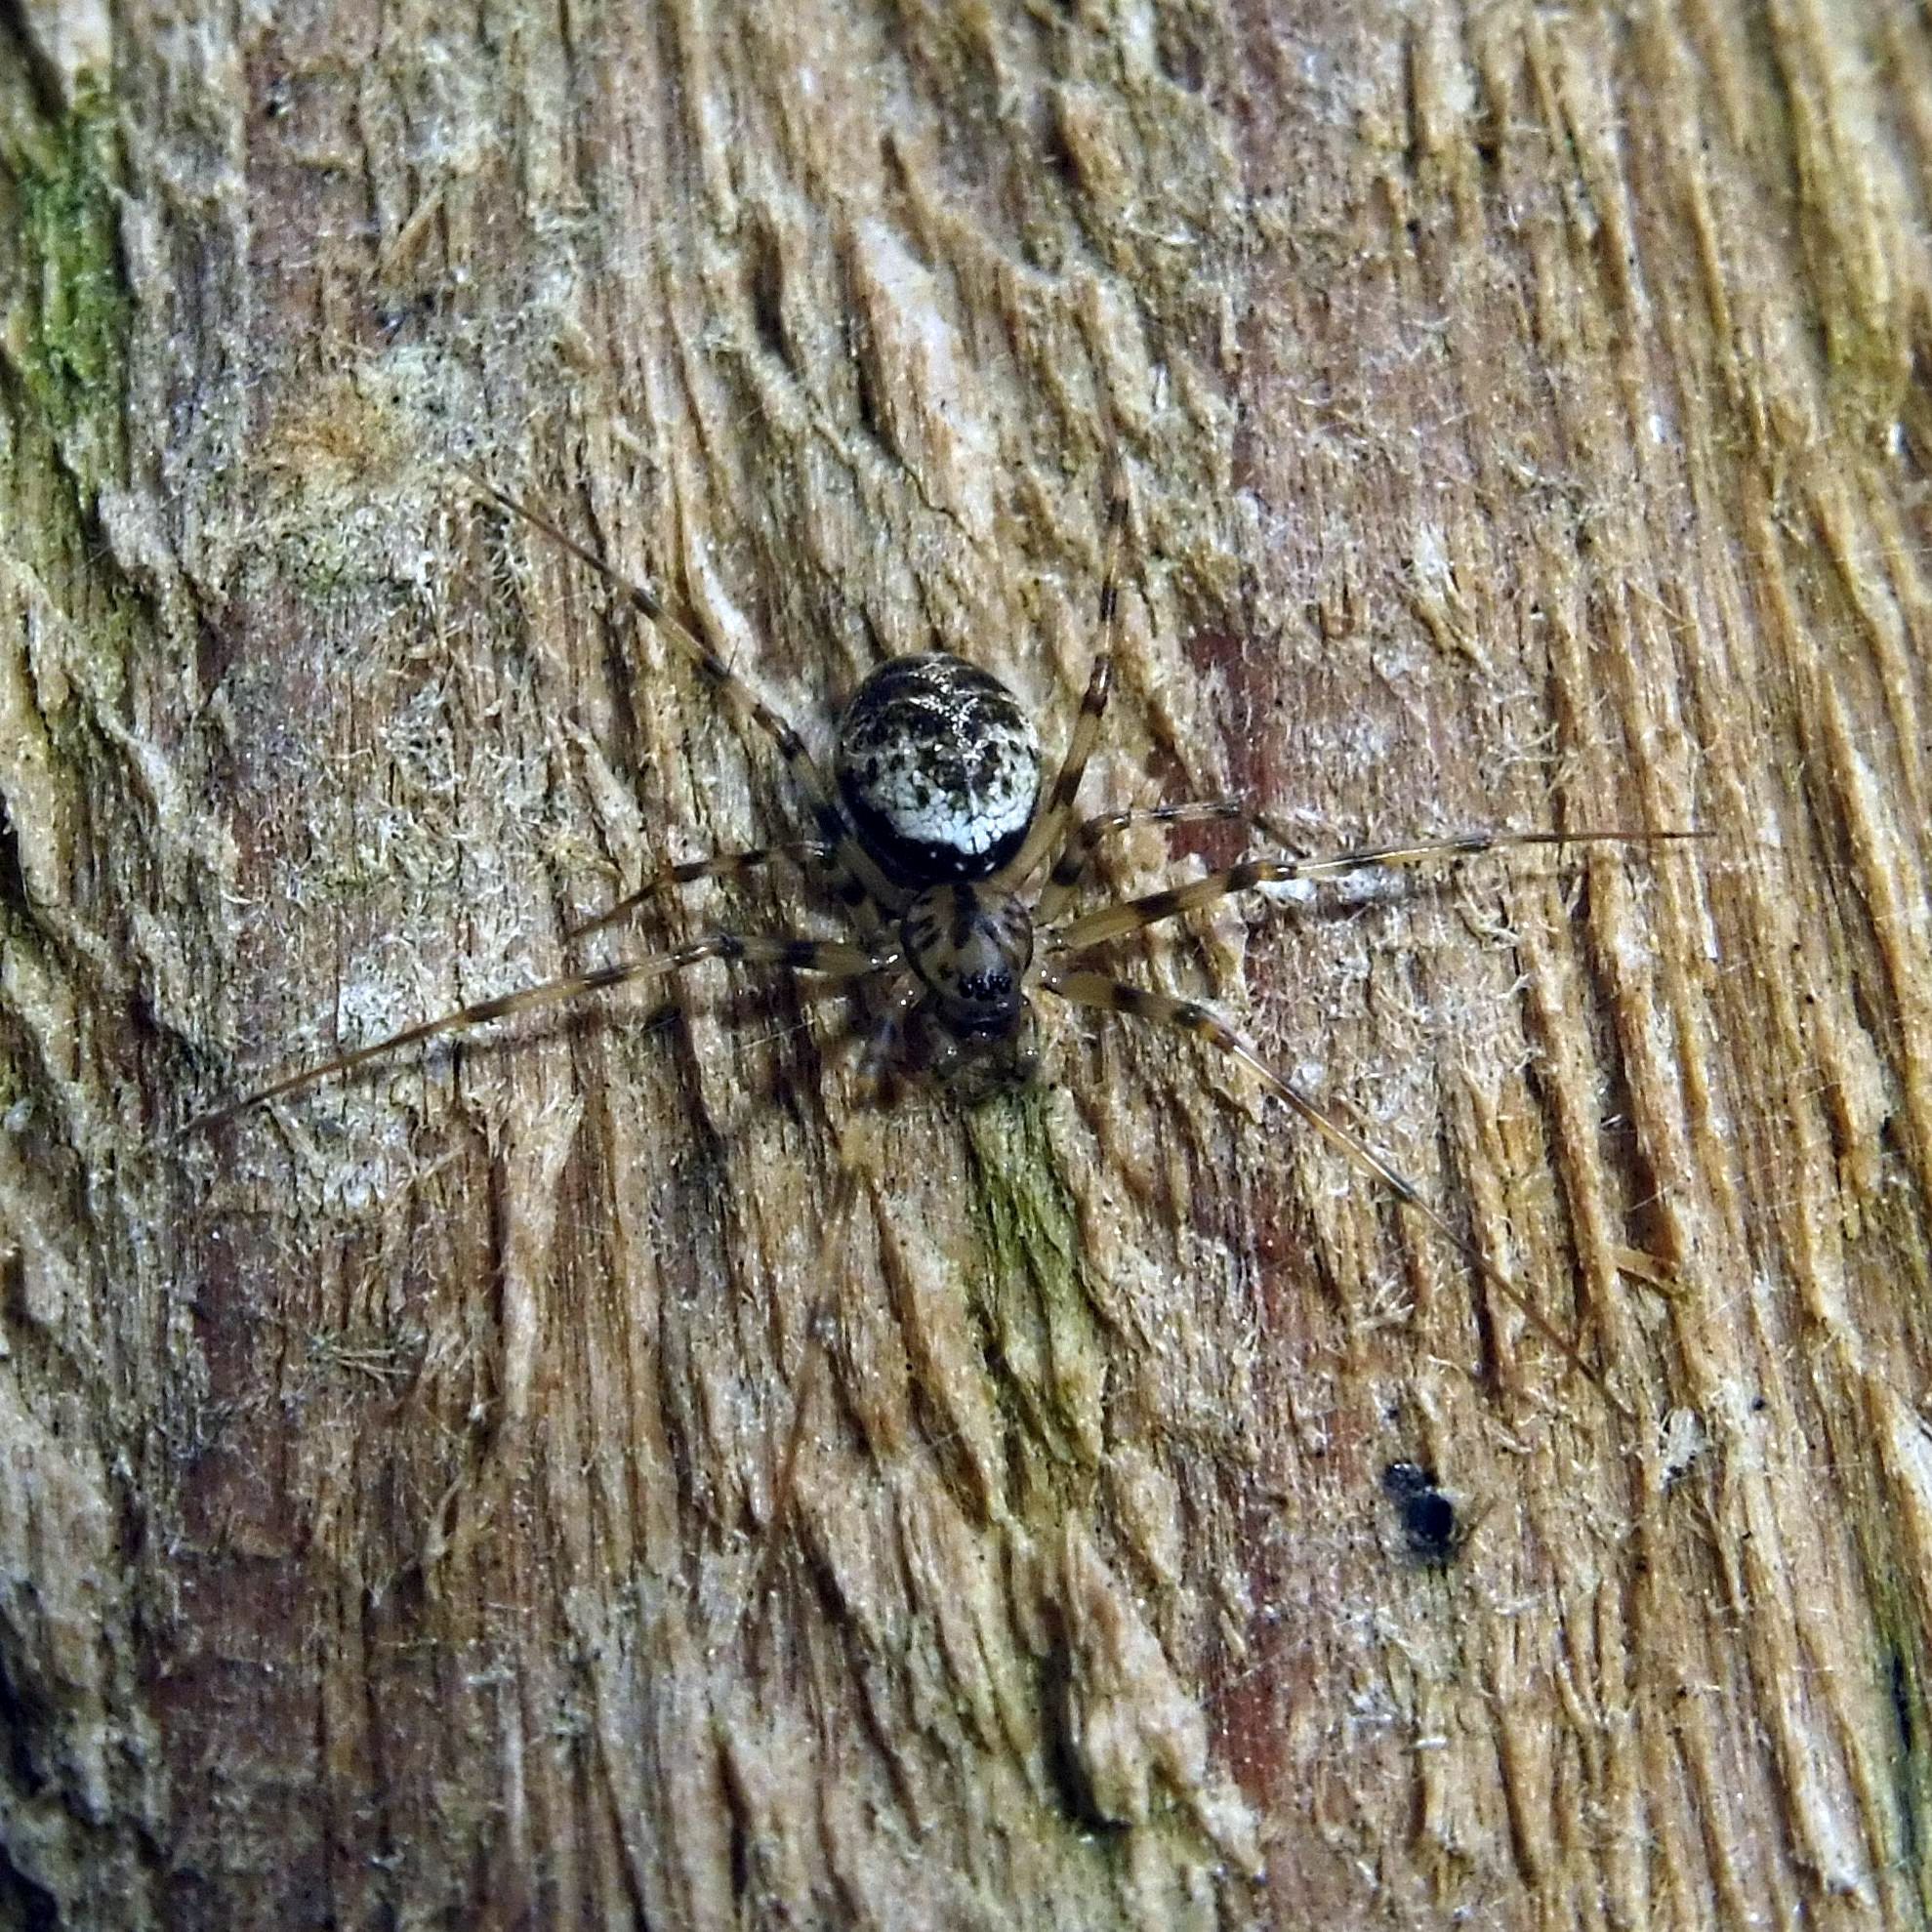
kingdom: Animalia
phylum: Arthropoda
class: Arachnida
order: Araneae
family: Linyphiidae
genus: Drapetisca
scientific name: Drapetisca socialis
